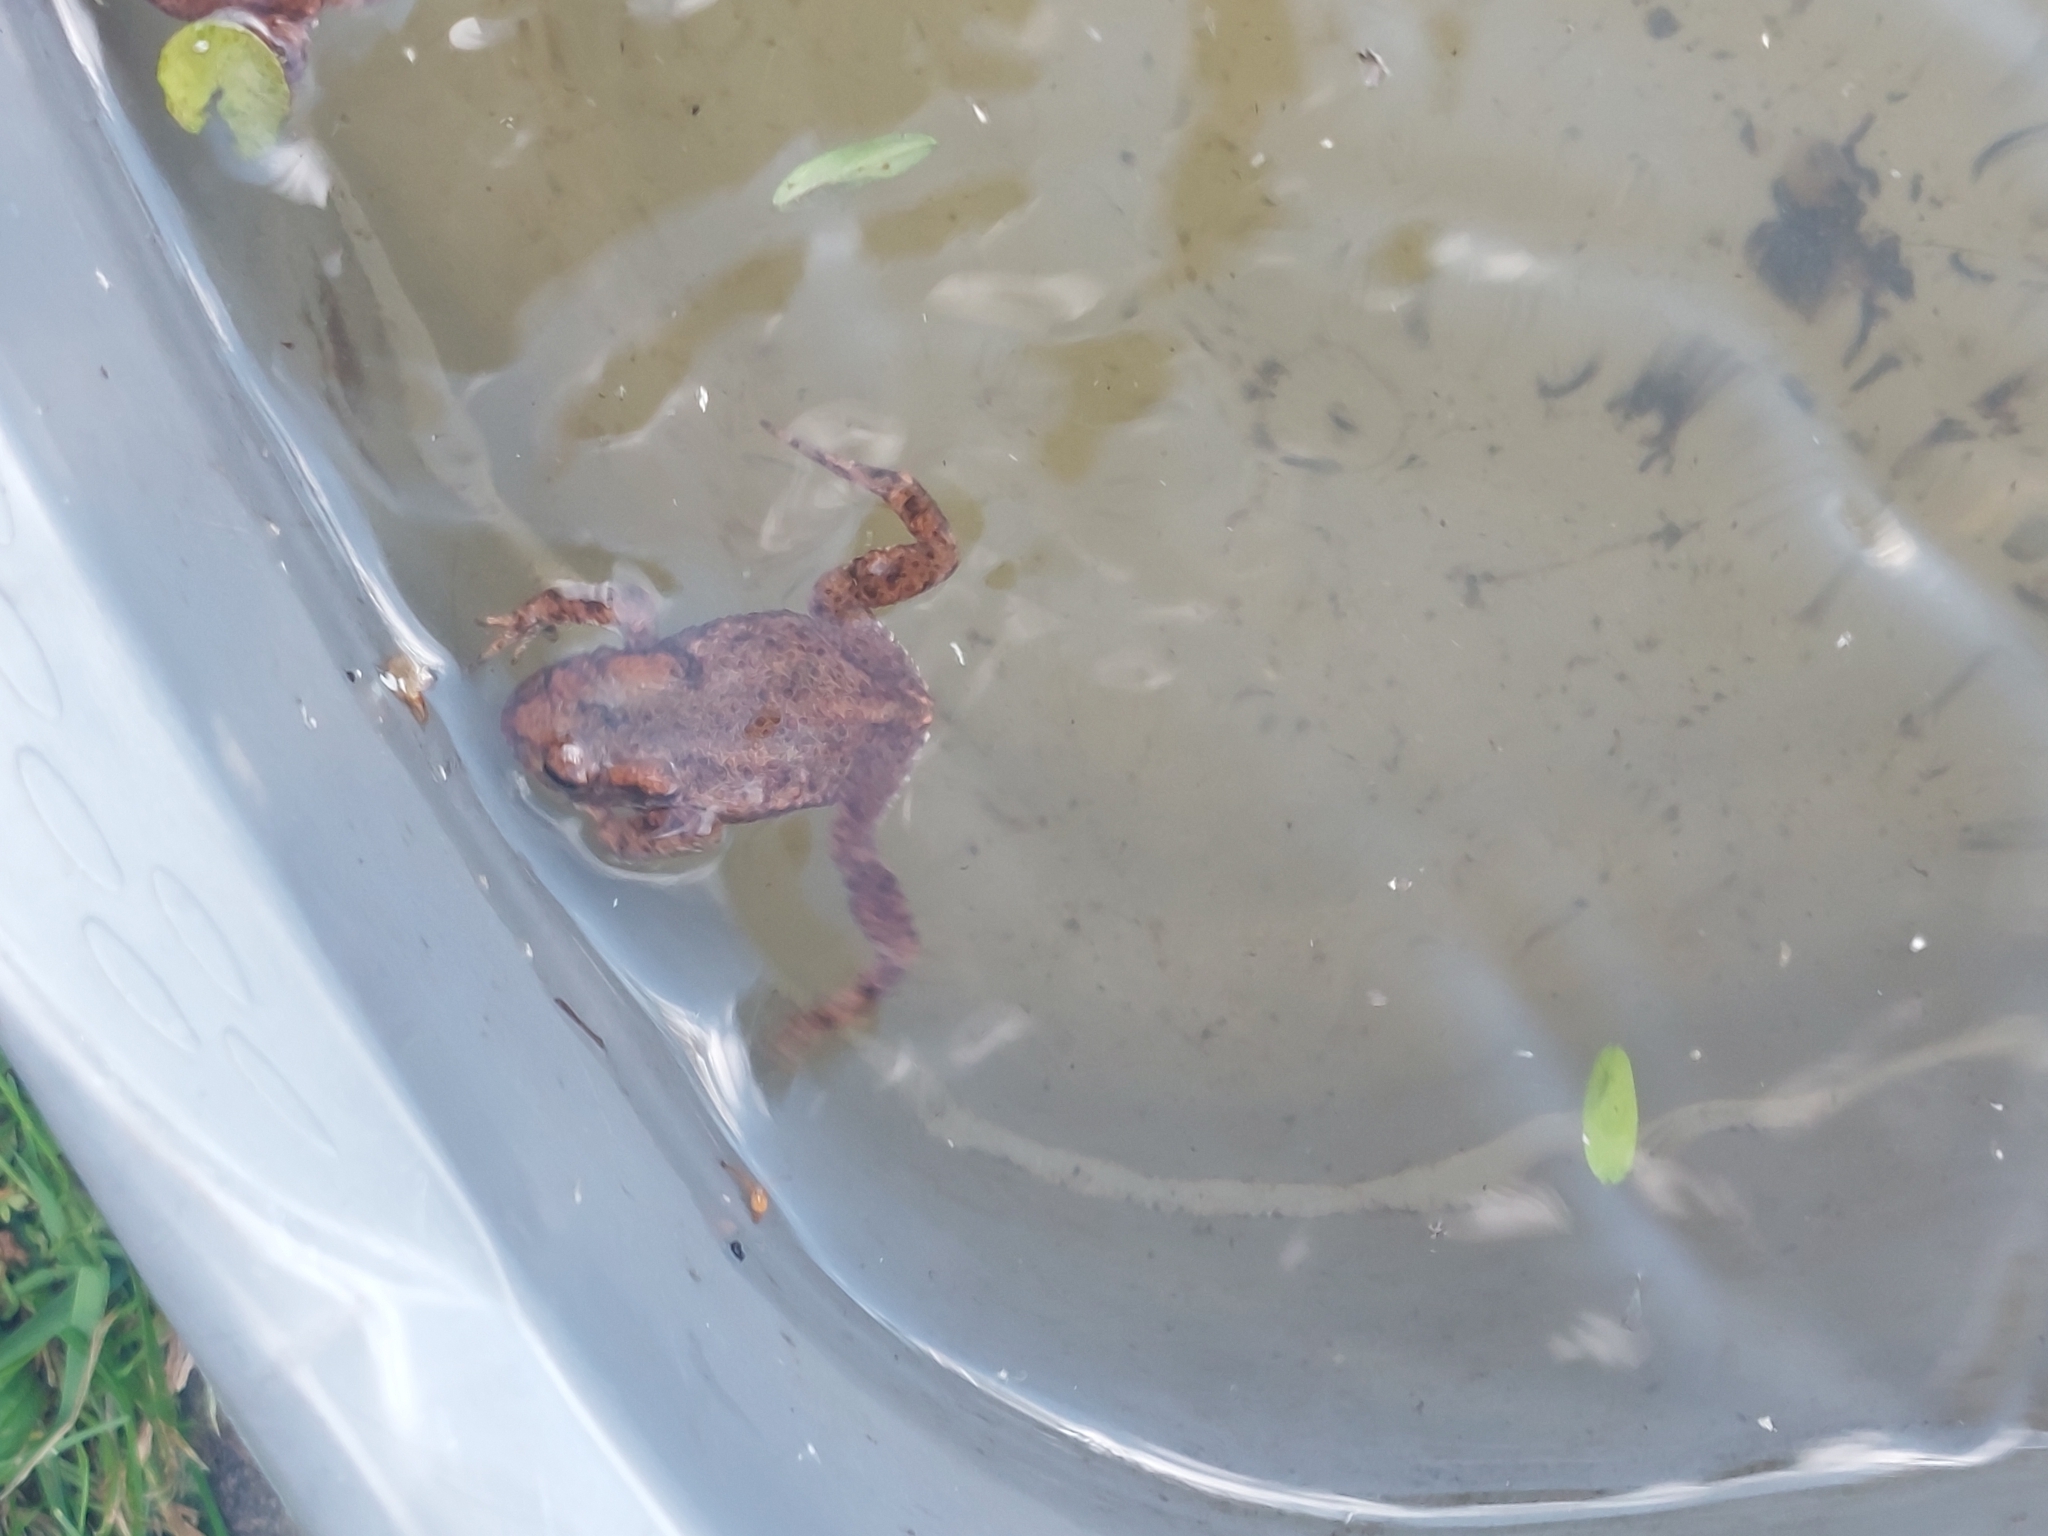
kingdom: Animalia
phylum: Chordata
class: Amphibia
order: Anura
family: Bufonidae
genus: Bufo
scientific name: Bufo bufo
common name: Common toad
